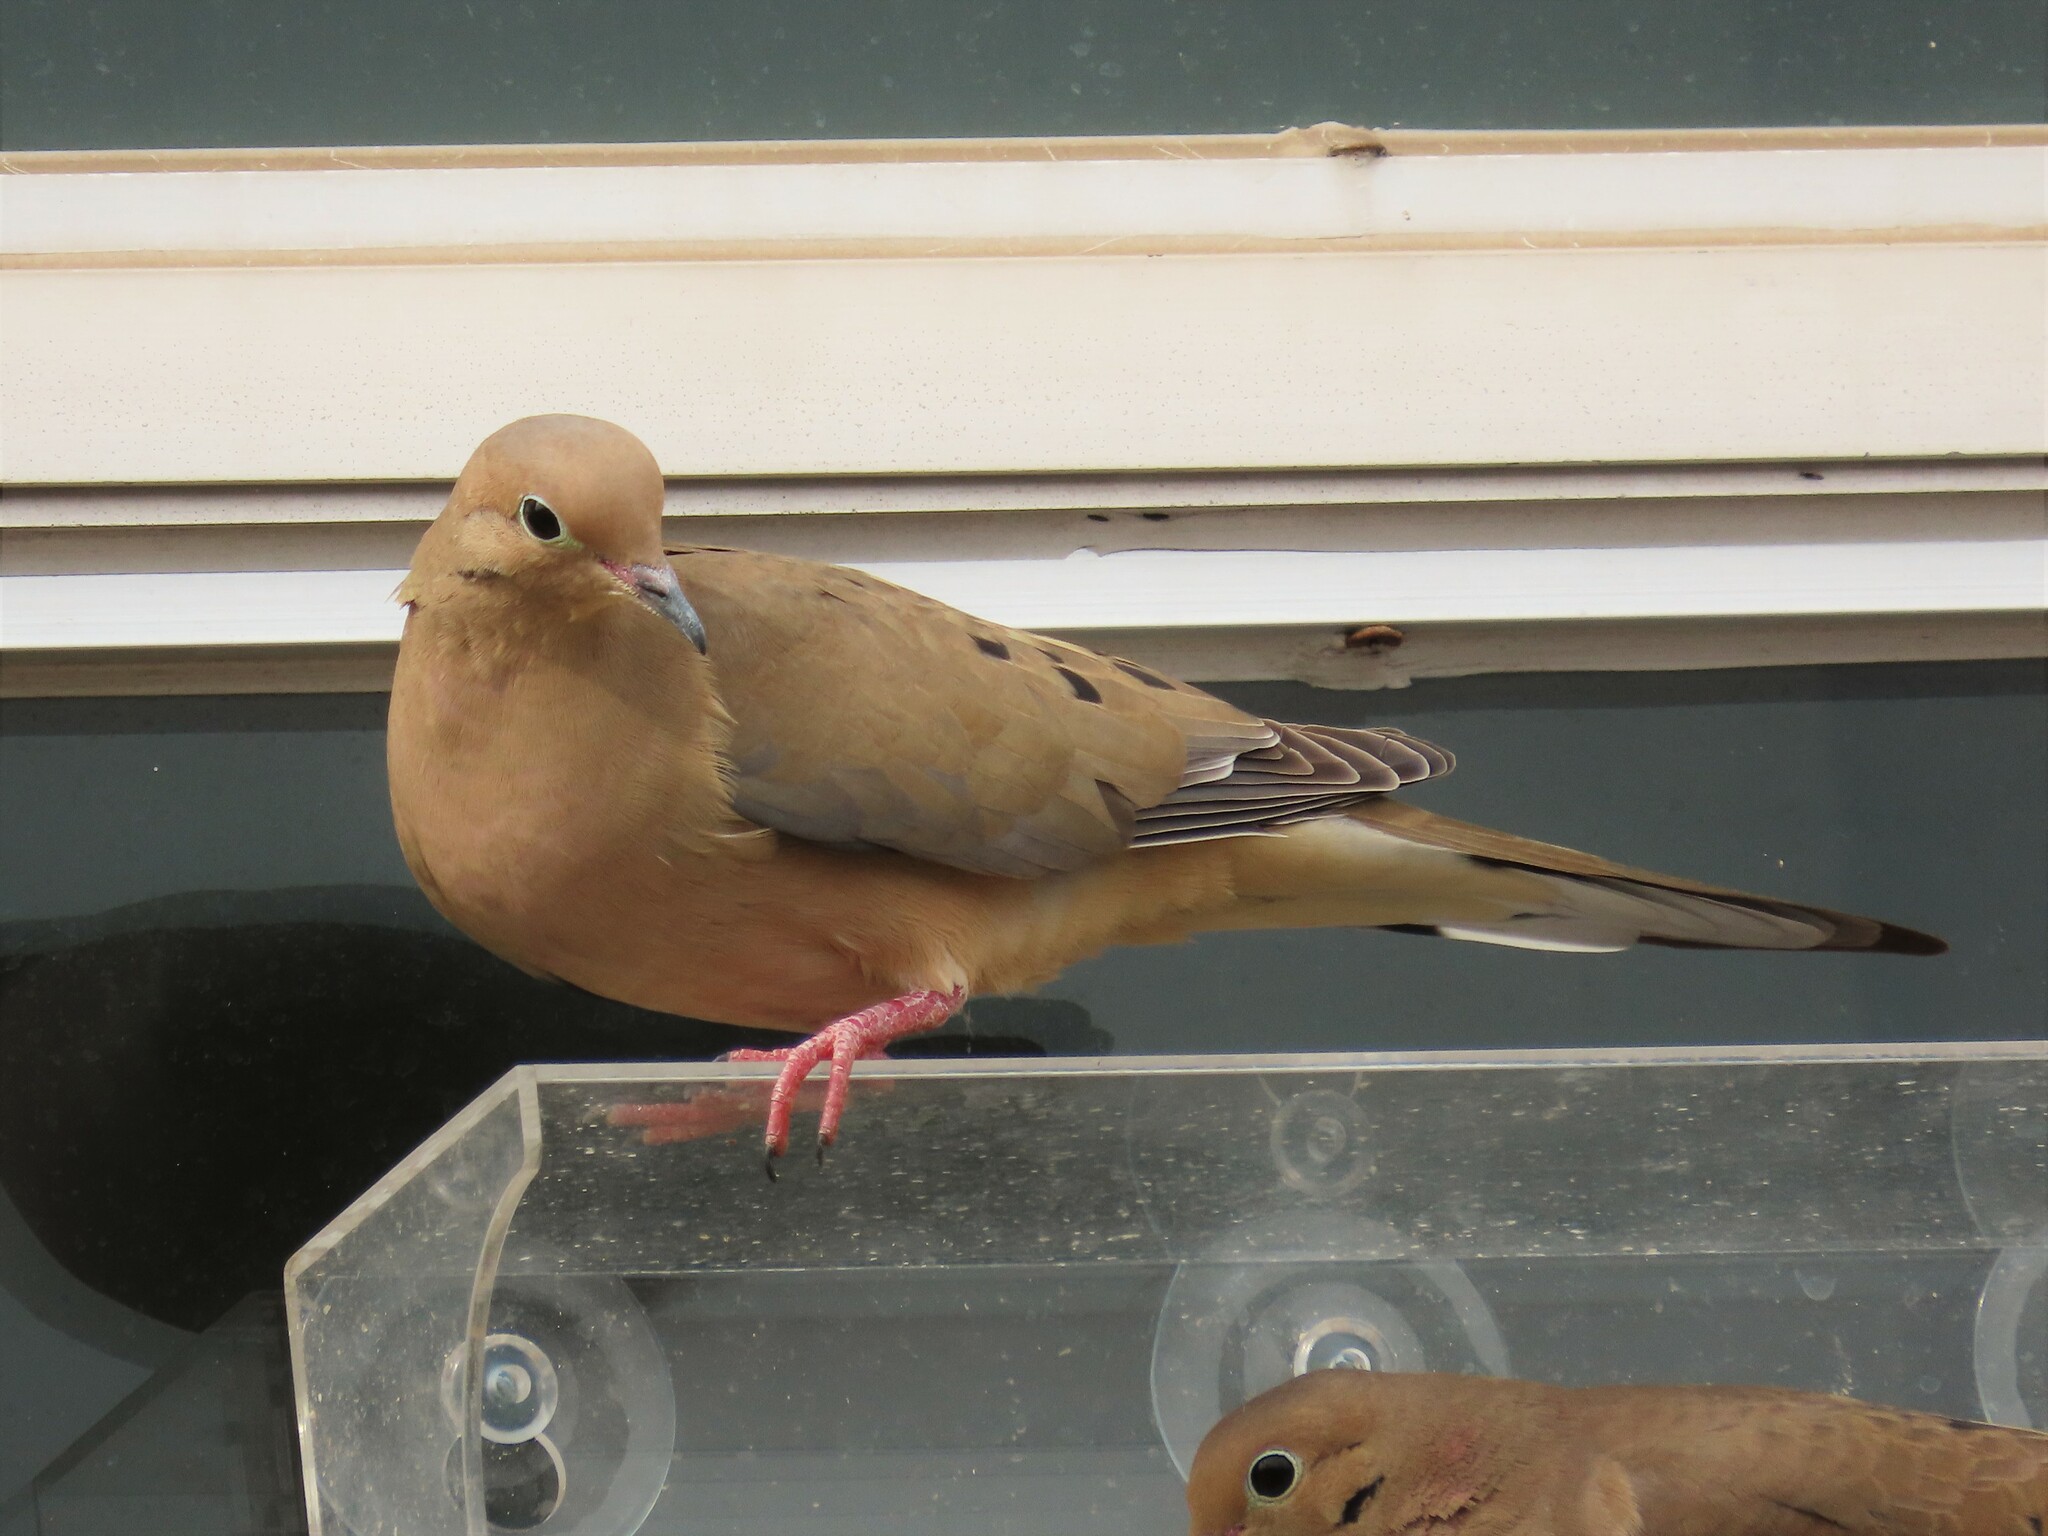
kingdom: Animalia
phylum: Chordata
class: Aves
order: Columbiformes
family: Columbidae
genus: Zenaida
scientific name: Zenaida macroura
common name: Mourning dove
